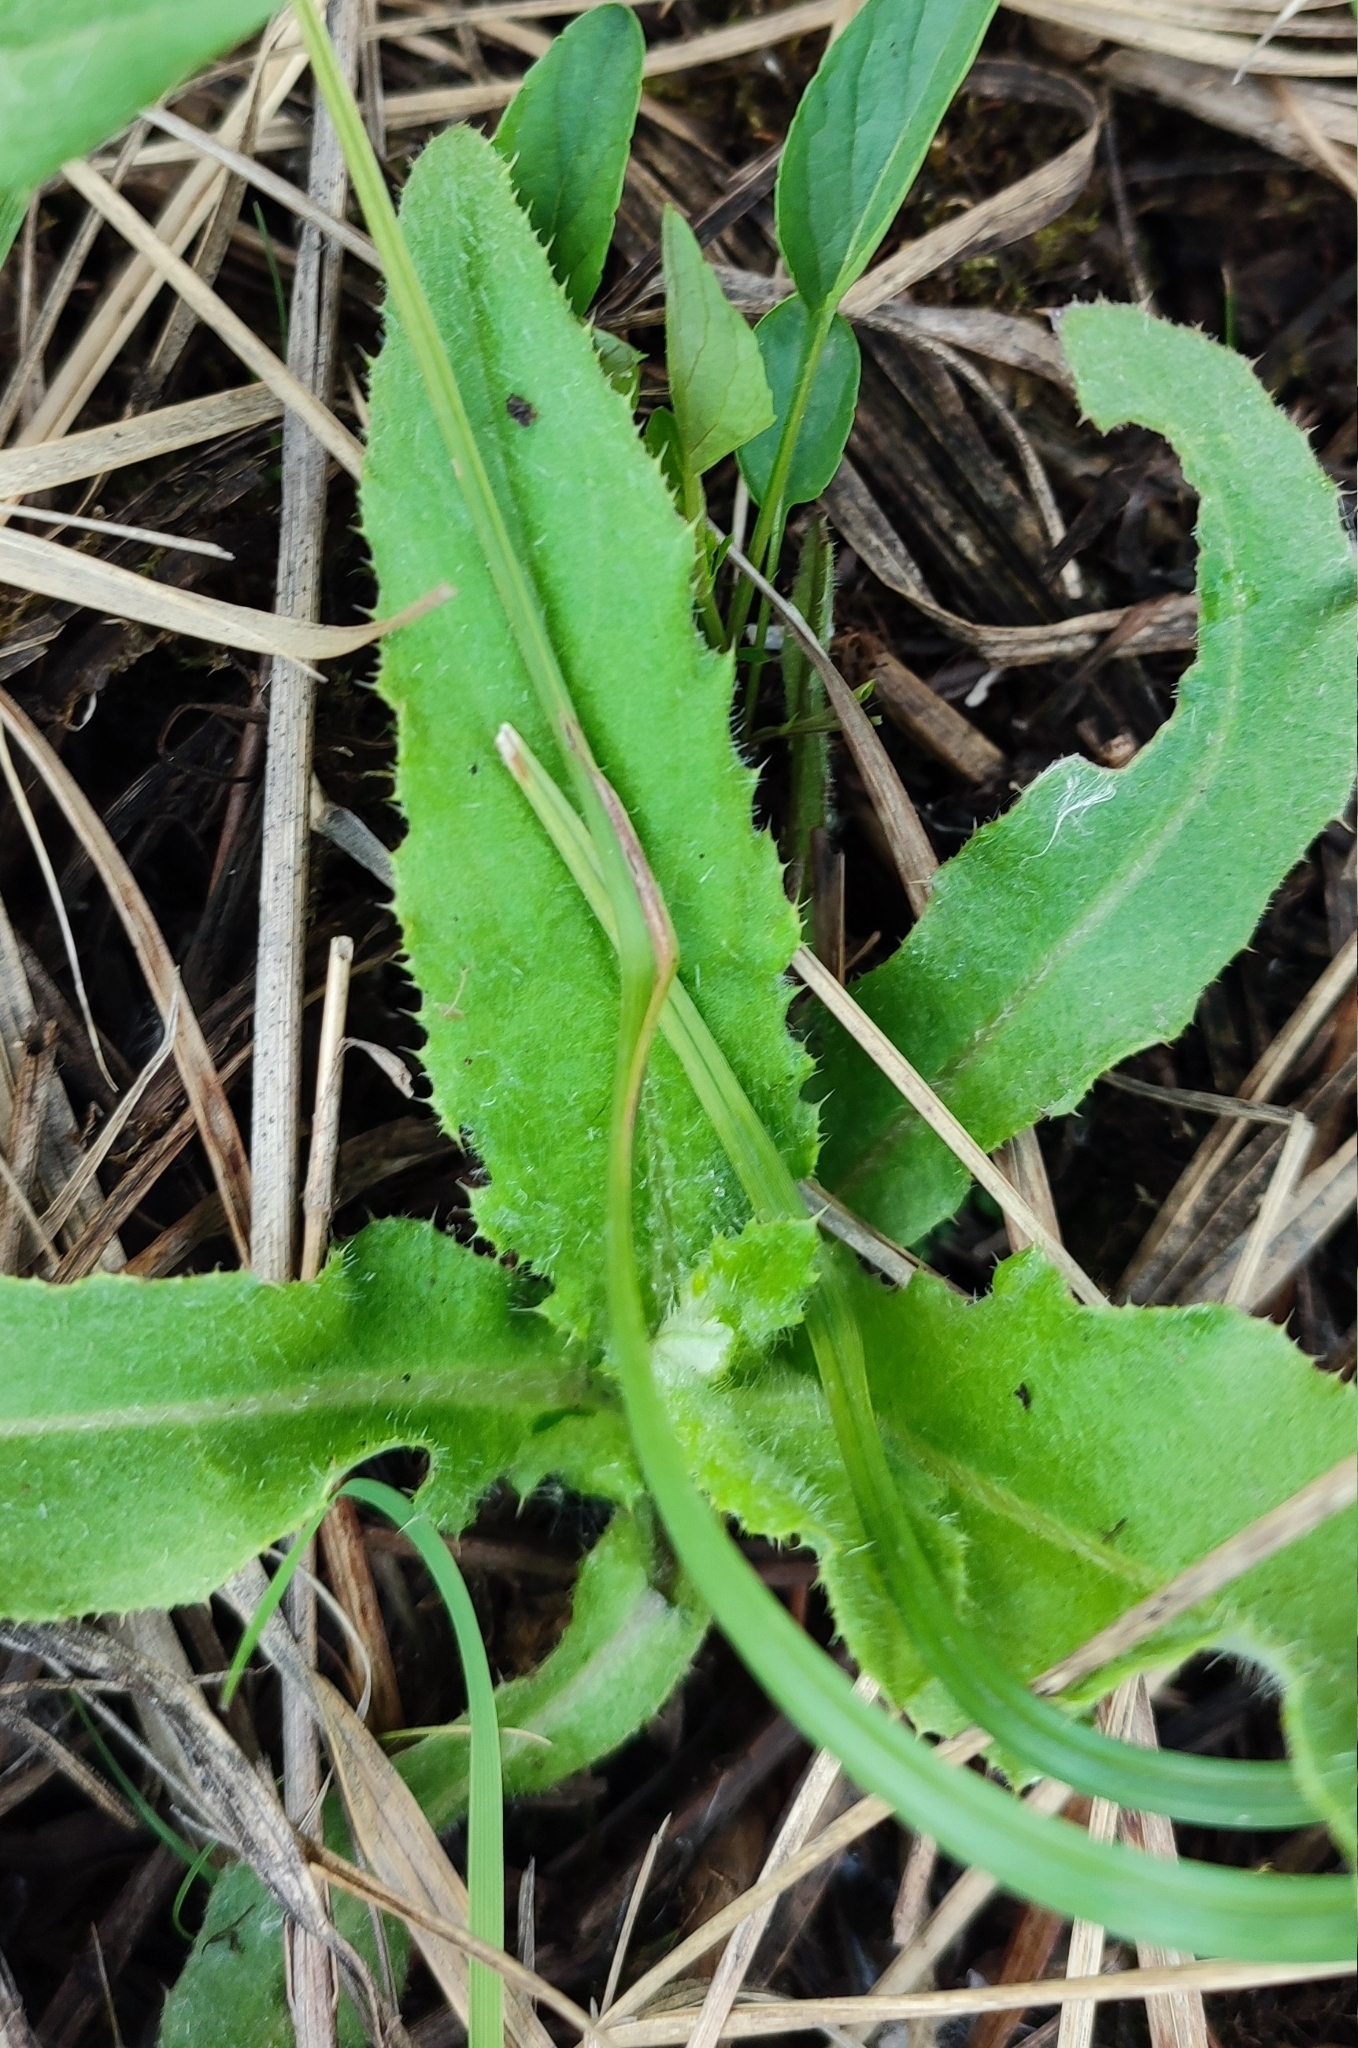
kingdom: Plantae
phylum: Tracheophyta
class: Magnoliopsida
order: Asterales
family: Asteraceae
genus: Cirsium
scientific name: Cirsium arvense
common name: Creeping thistle
